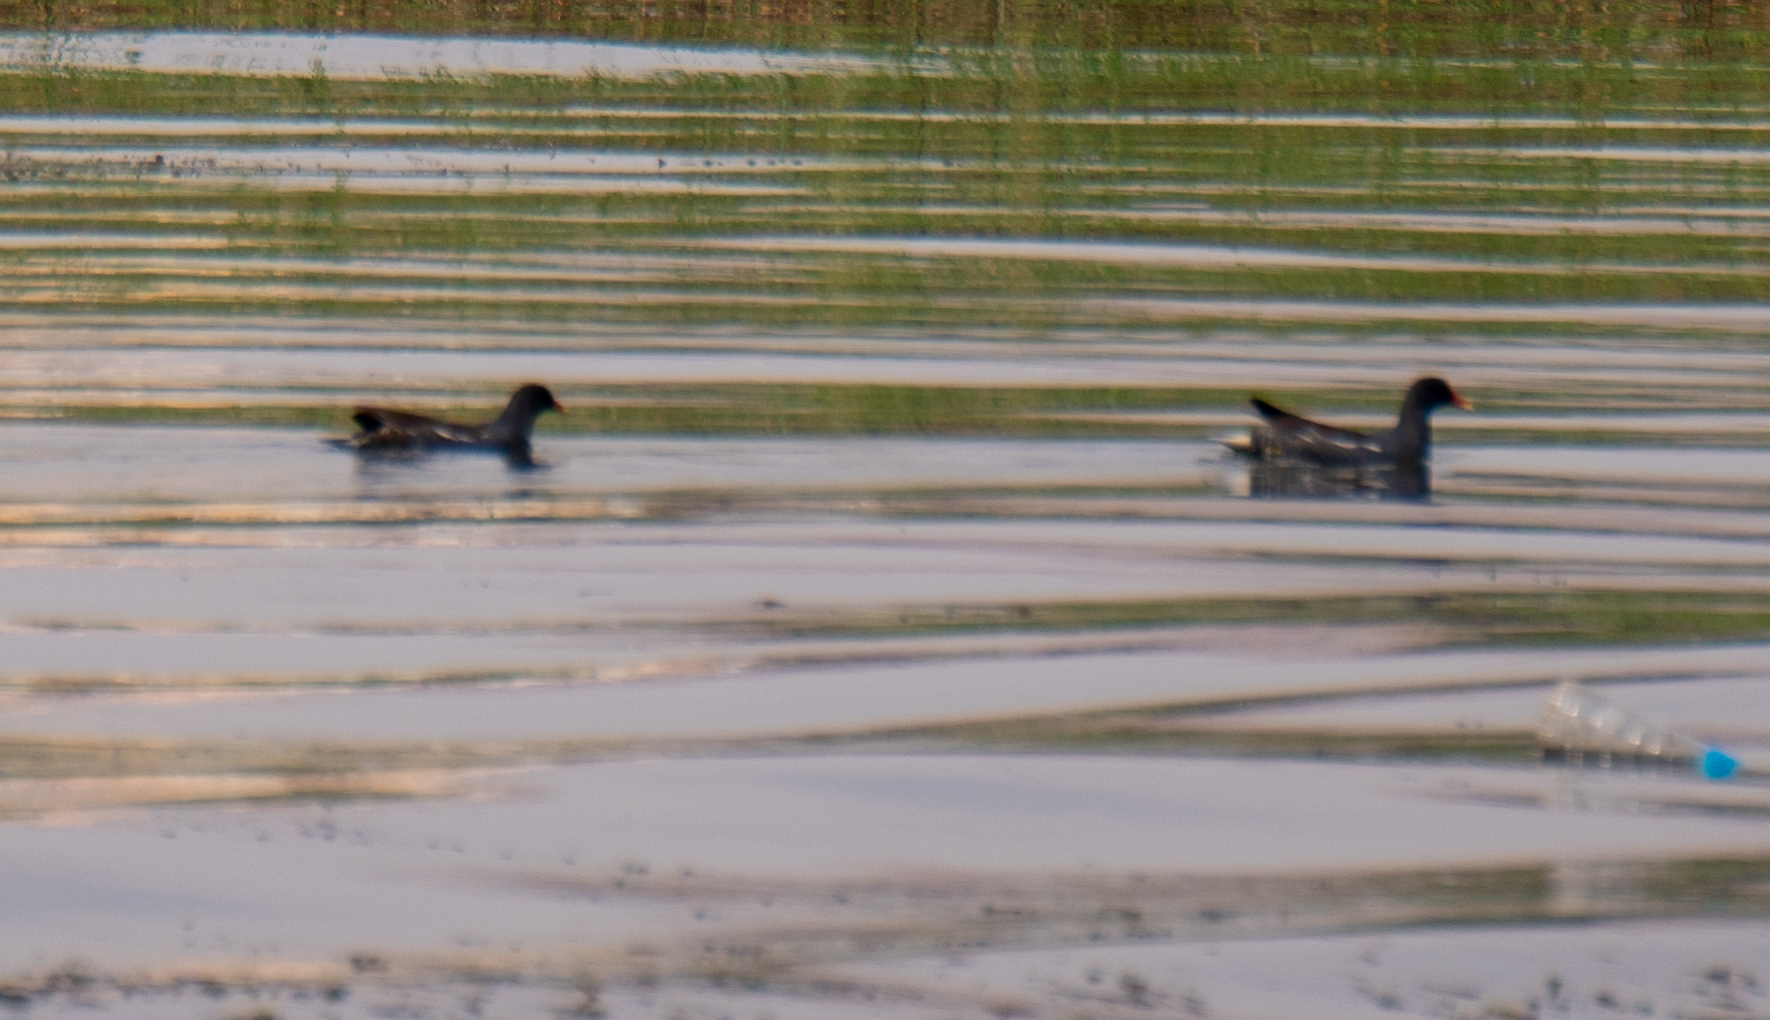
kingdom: Animalia
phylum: Chordata
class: Aves
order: Gruiformes
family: Rallidae
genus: Gallinula
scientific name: Gallinula chloropus
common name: Common moorhen
